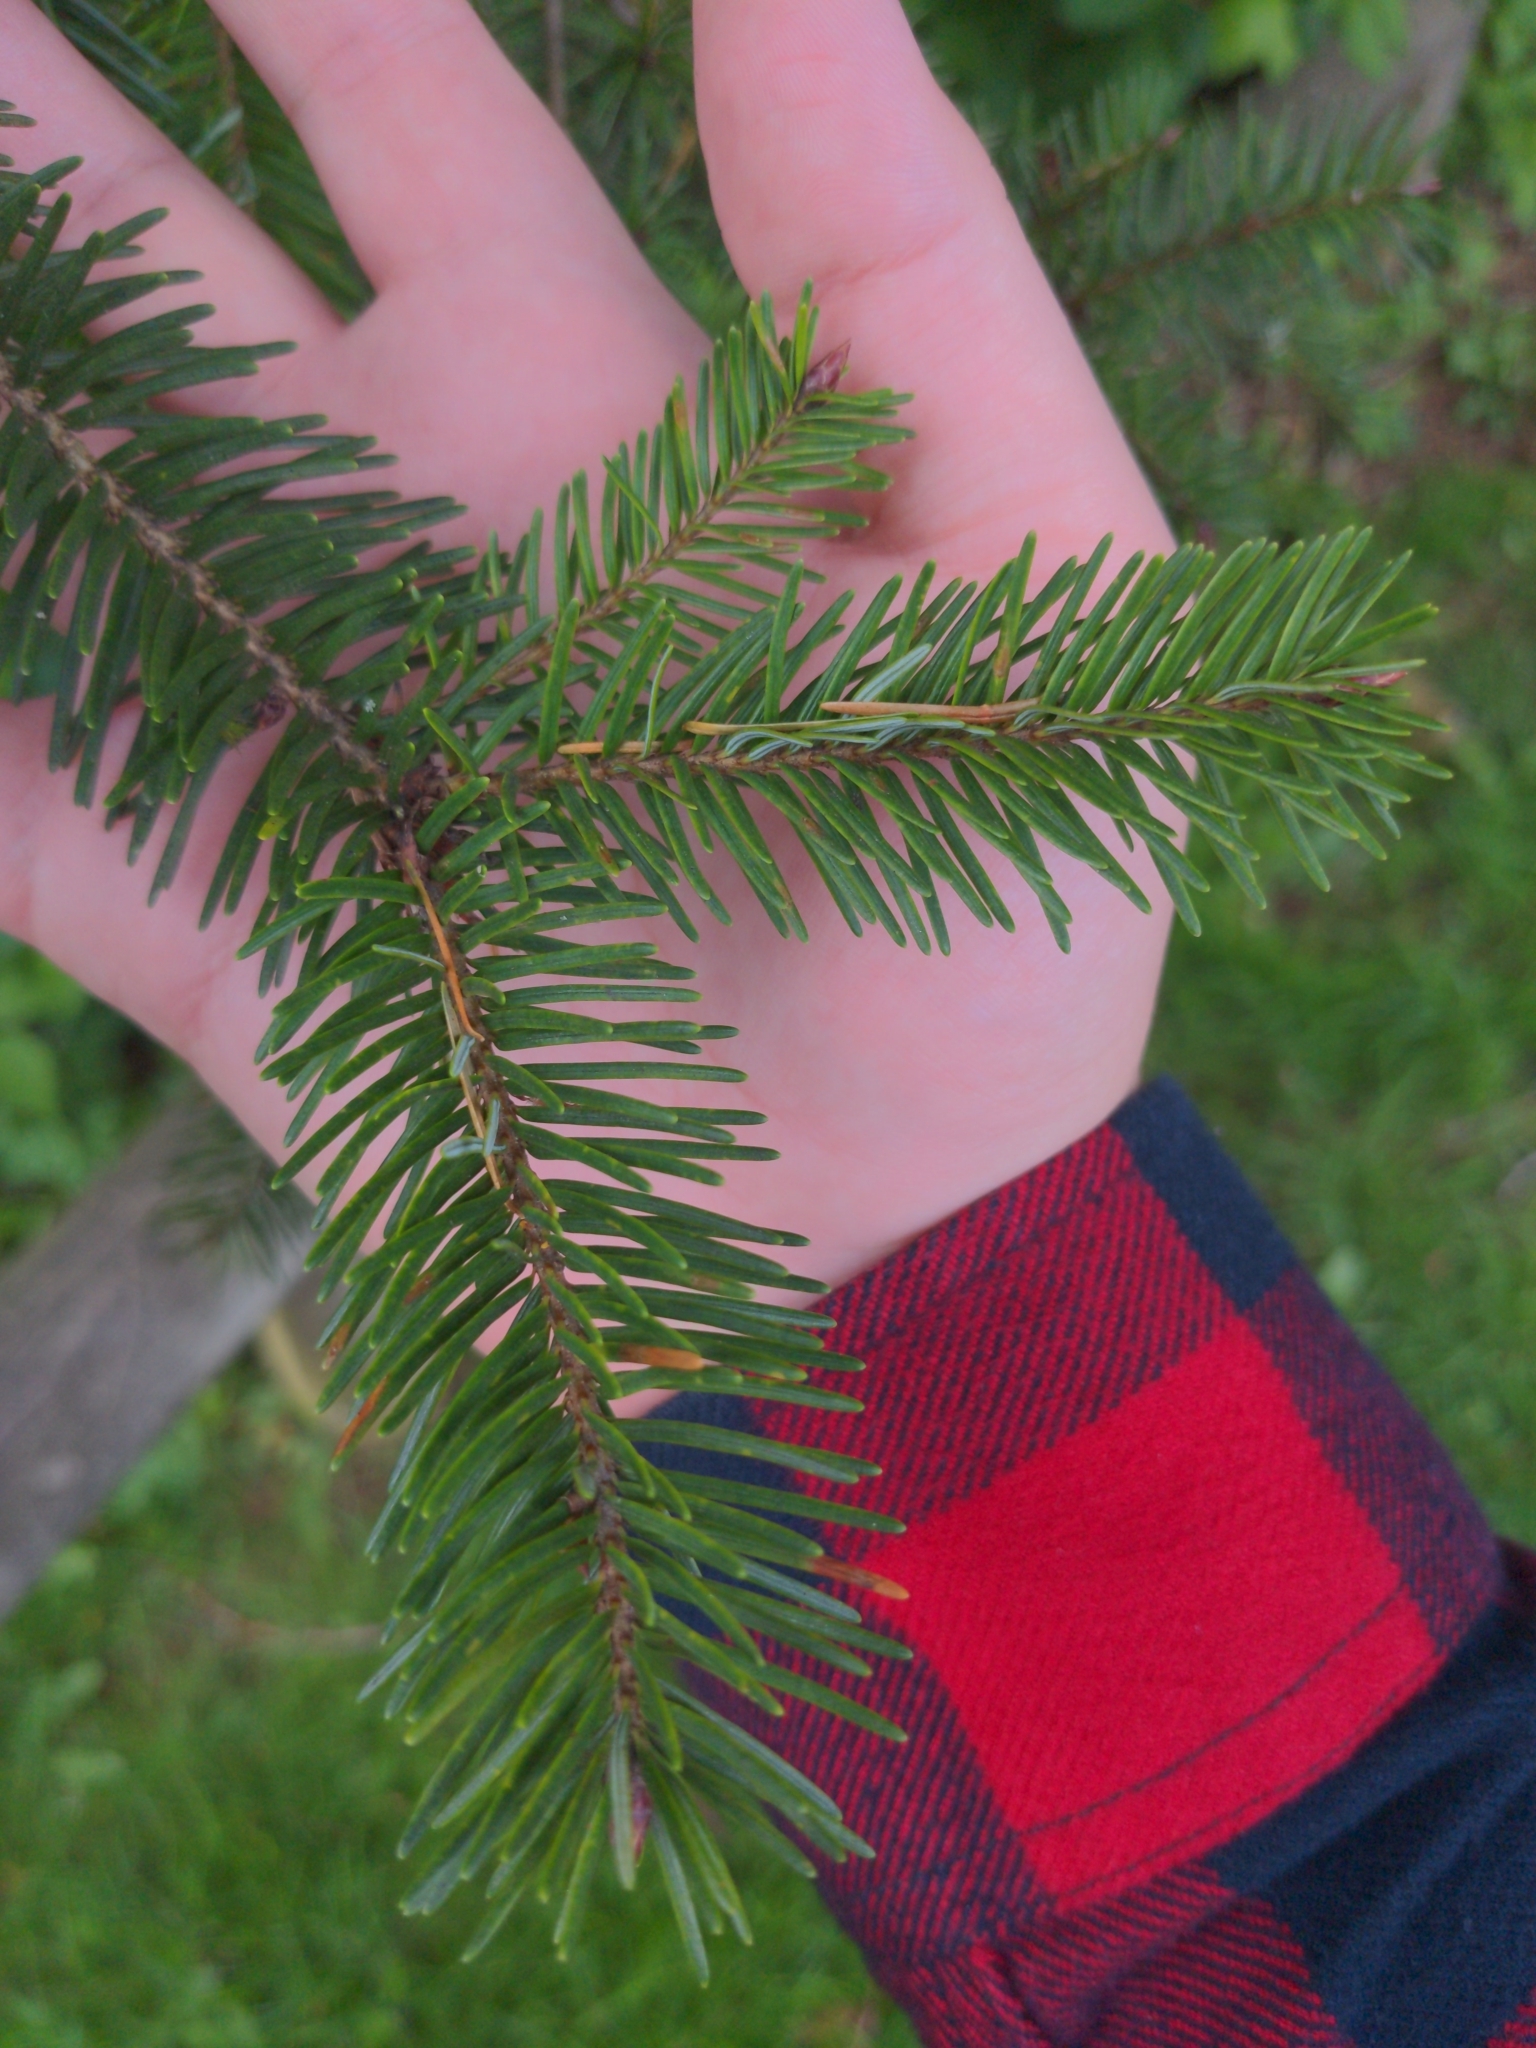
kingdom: Plantae
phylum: Tracheophyta
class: Pinopsida
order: Pinales
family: Pinaceae
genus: Pseudotsuga
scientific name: Pseudotsuga menziesii
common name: Douglas fir
